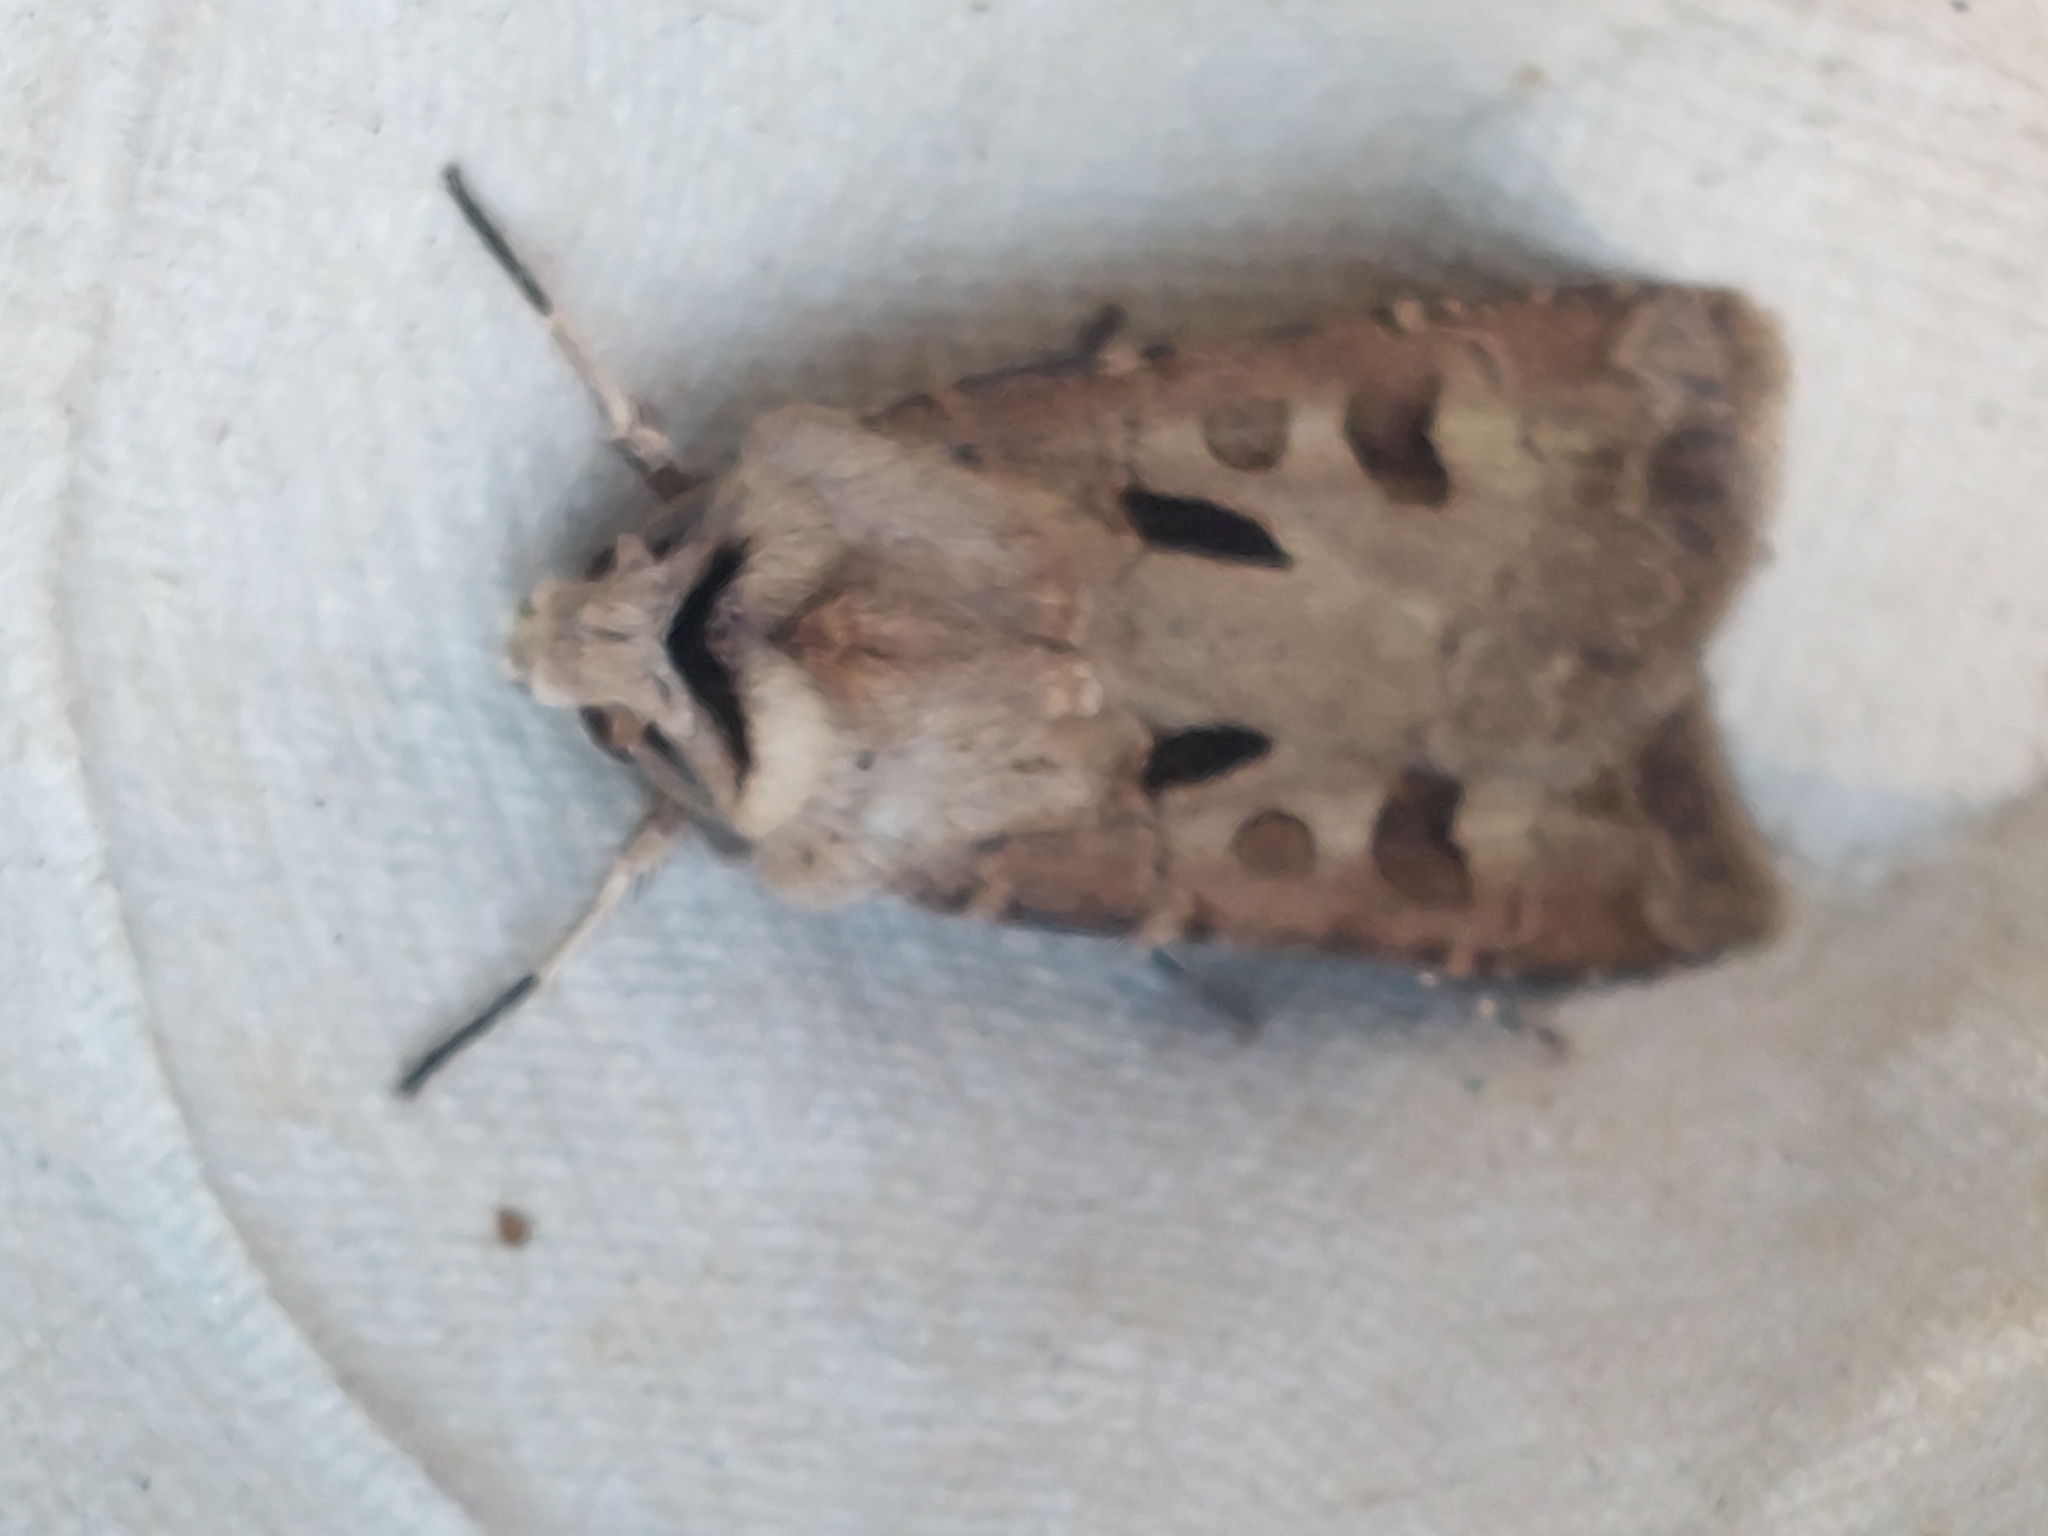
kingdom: Animalia
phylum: Arthropoda
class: Insecta
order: Lepidoptera
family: Noctuidae
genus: Agrotis
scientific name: Agrotis exclamationis
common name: Heart and dart
